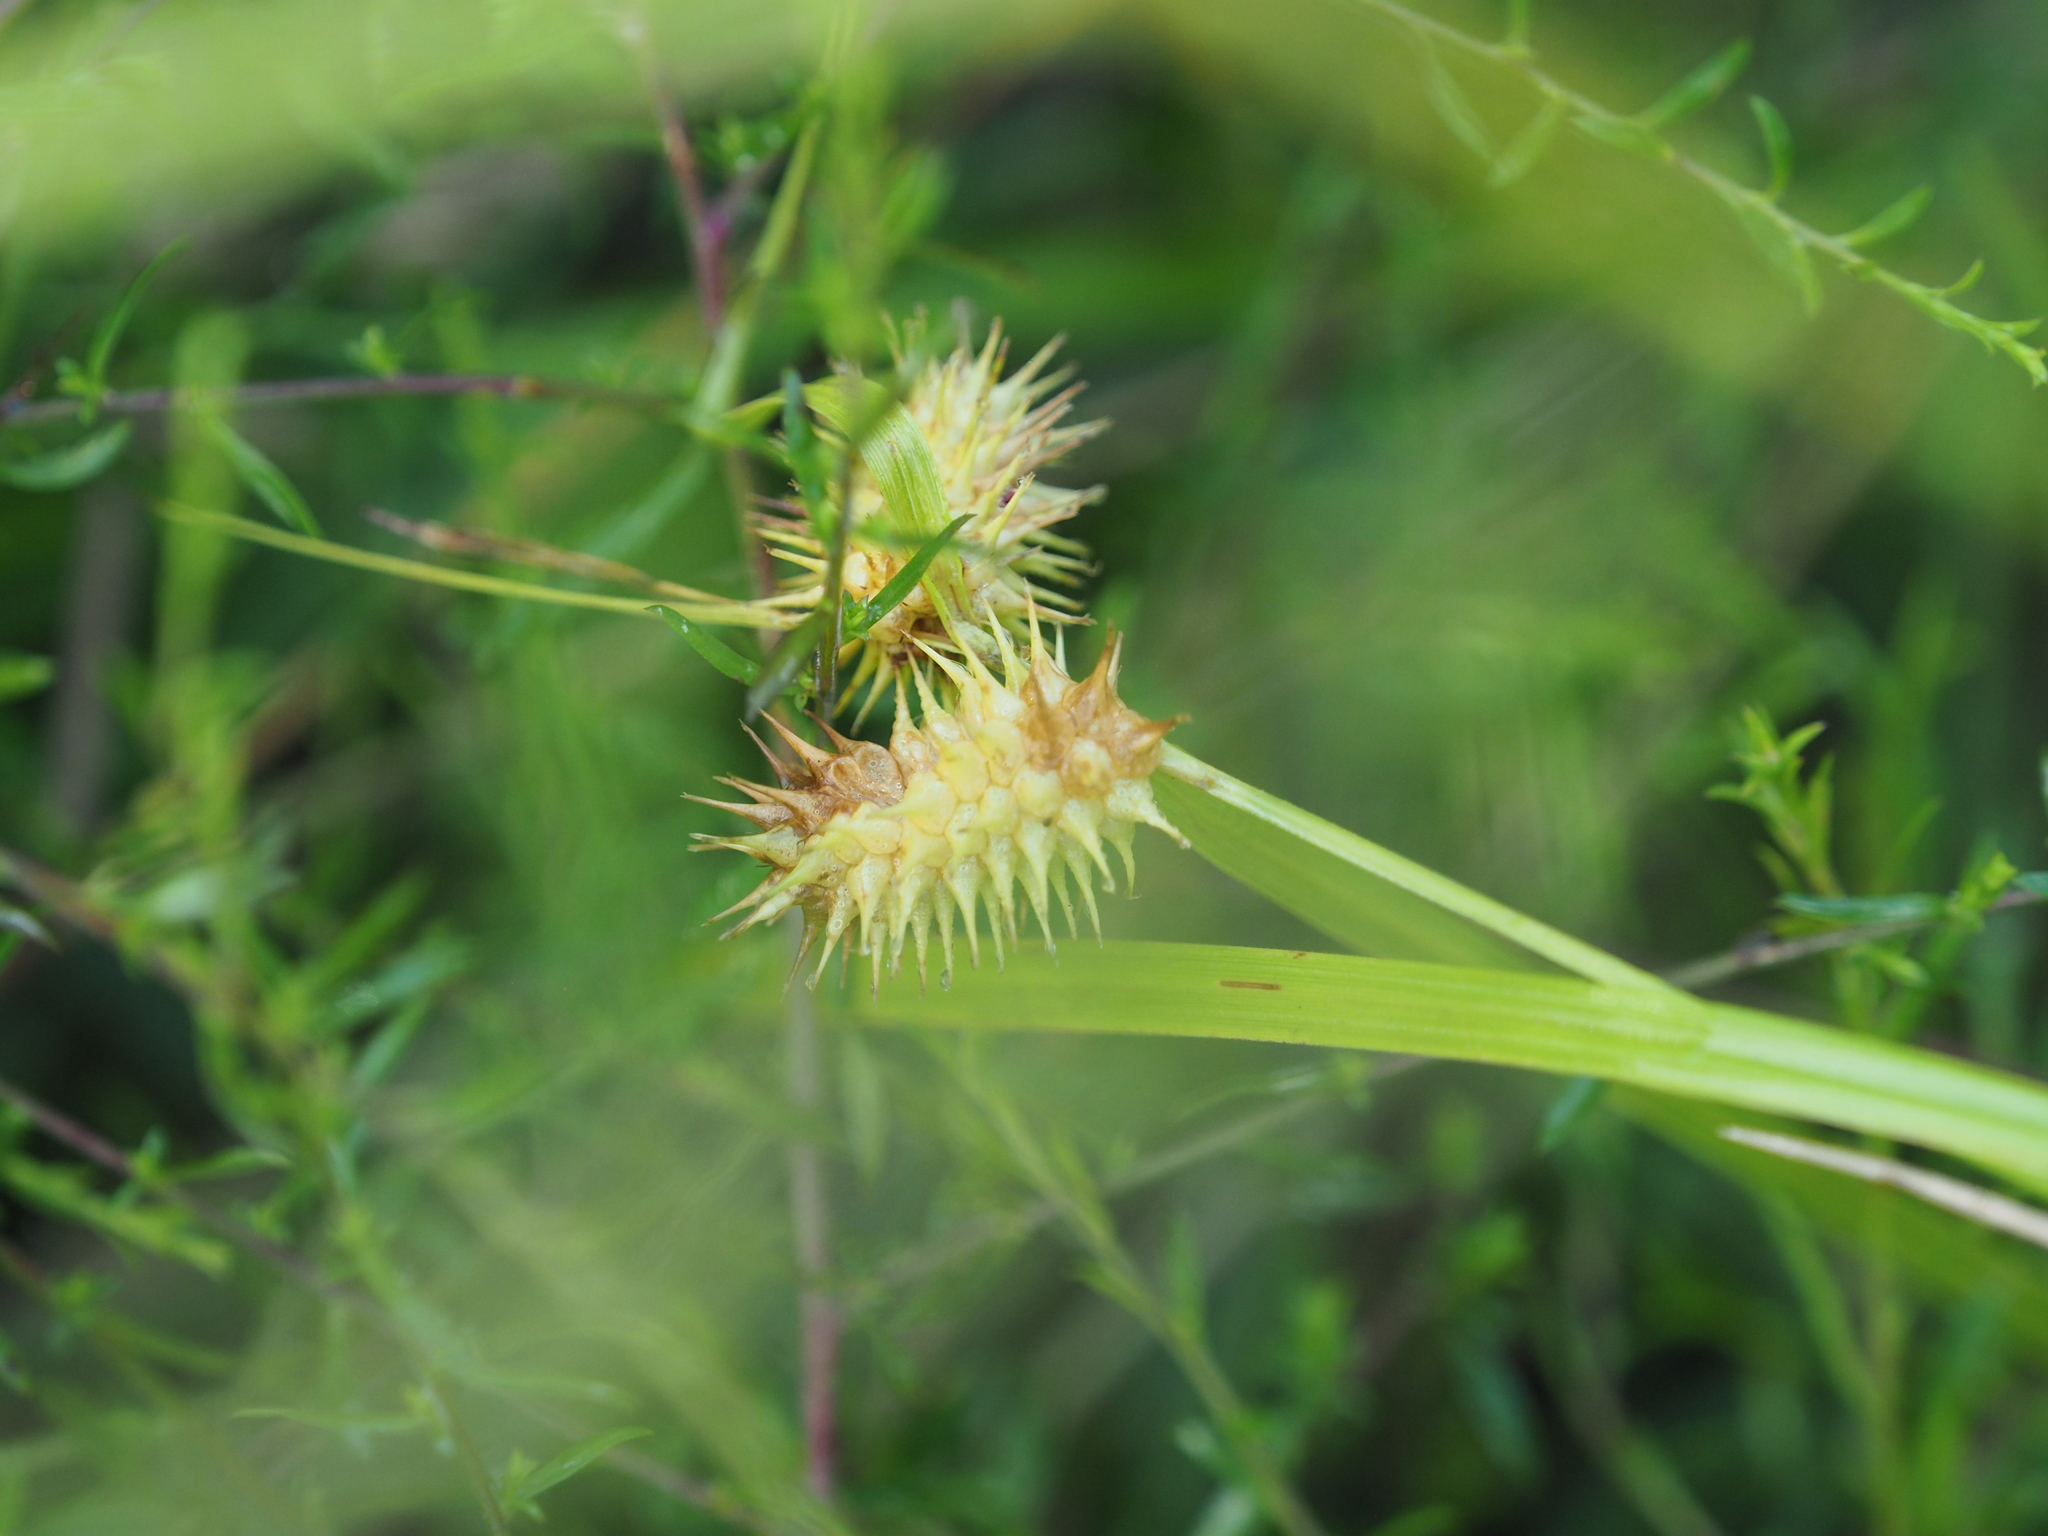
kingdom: Plantae
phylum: Tracheophyta
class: Liliopsida
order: Poales
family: Cyperaceae
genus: Carex
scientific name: Carex lurida
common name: Sallow sedge
